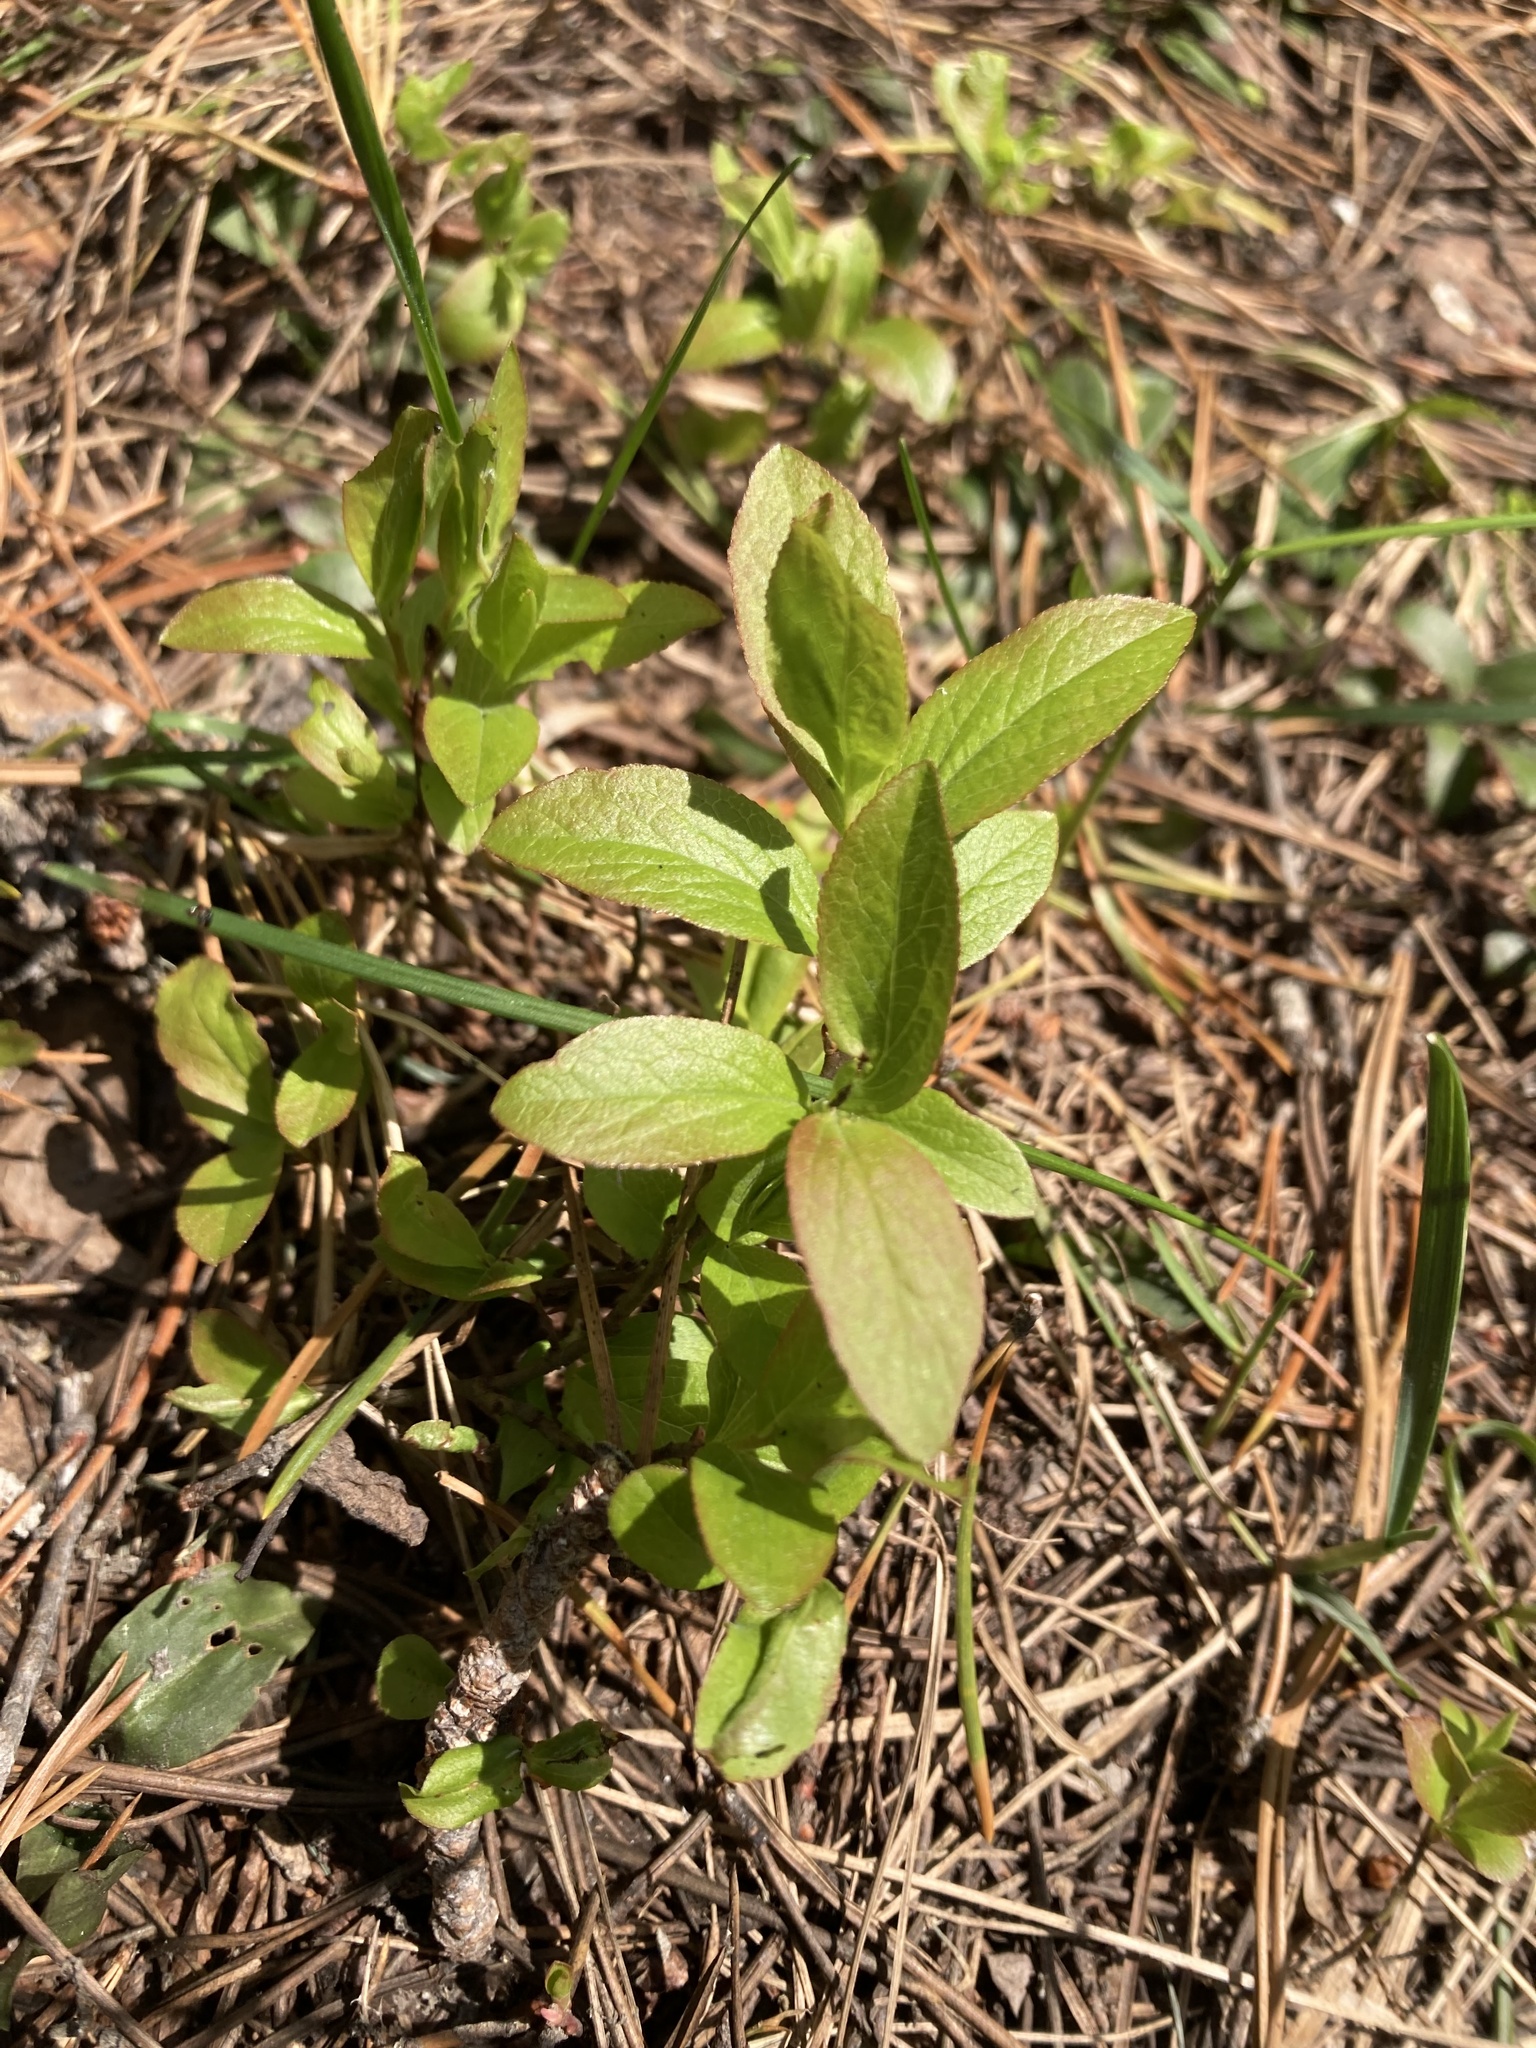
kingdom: Plantae
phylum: Tracheophyta
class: Magnoliopsida
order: Ericales
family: Ericaceae
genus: Vaccinium
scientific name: Vaccinium cespitosum
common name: Dwarf bilberry
